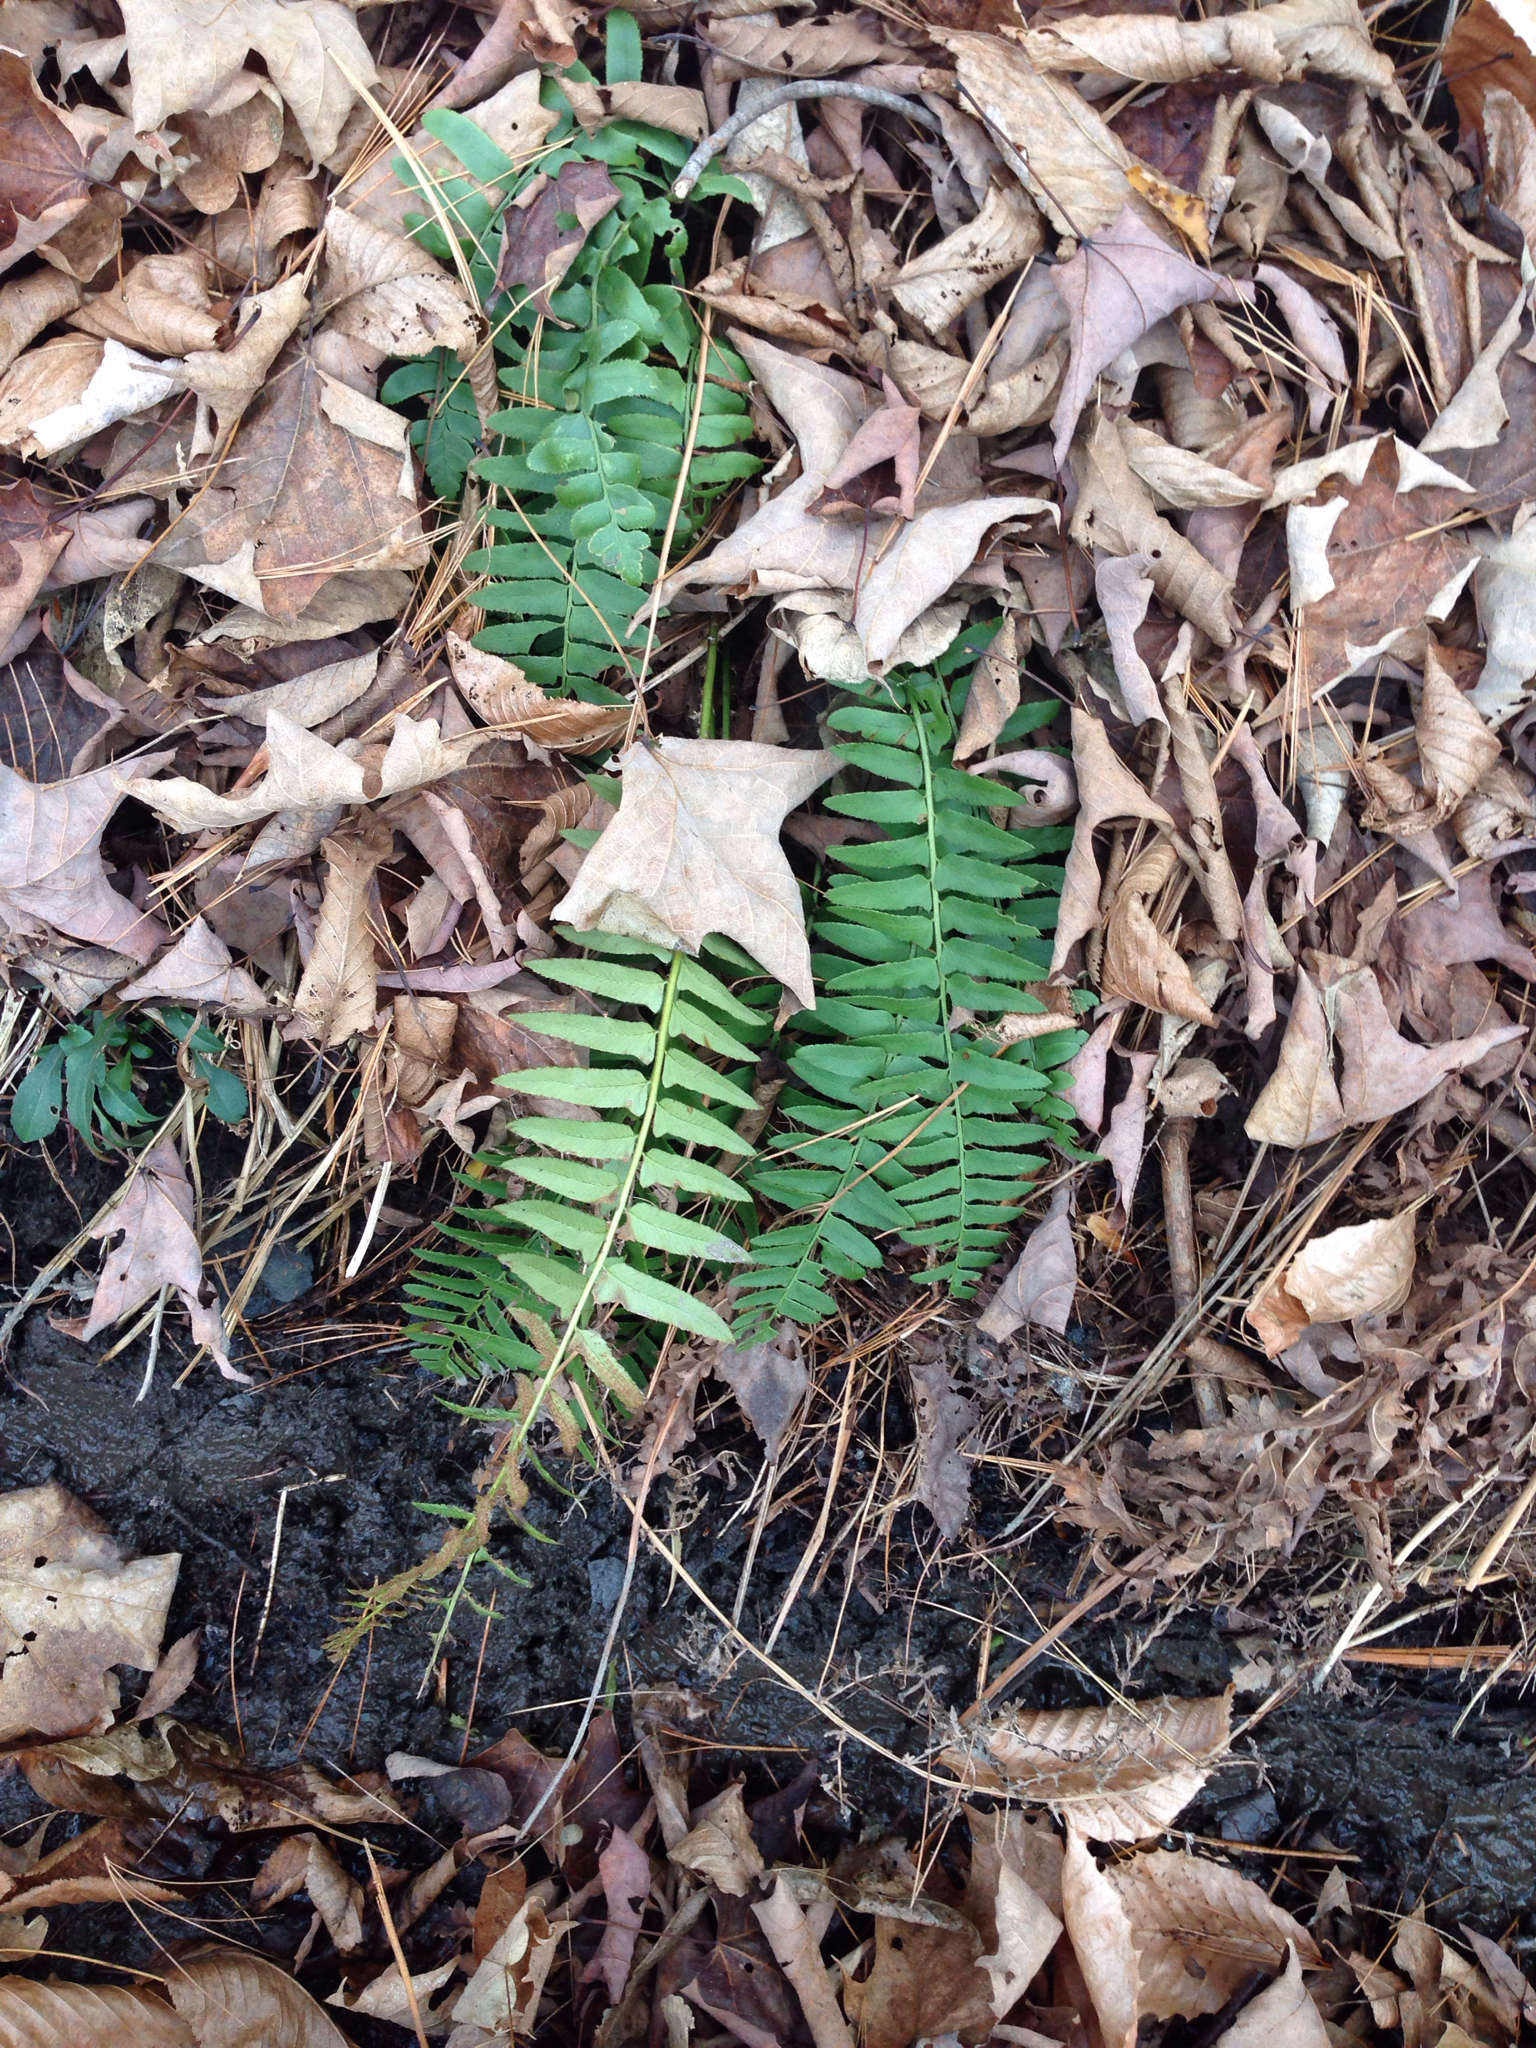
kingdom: Plantae
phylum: Tracheophyta
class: Polypodiopsida
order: Polypodiales
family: Dryopteridaceae
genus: Polystichum
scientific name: Polystichum acrostichoides
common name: Christmas fern
